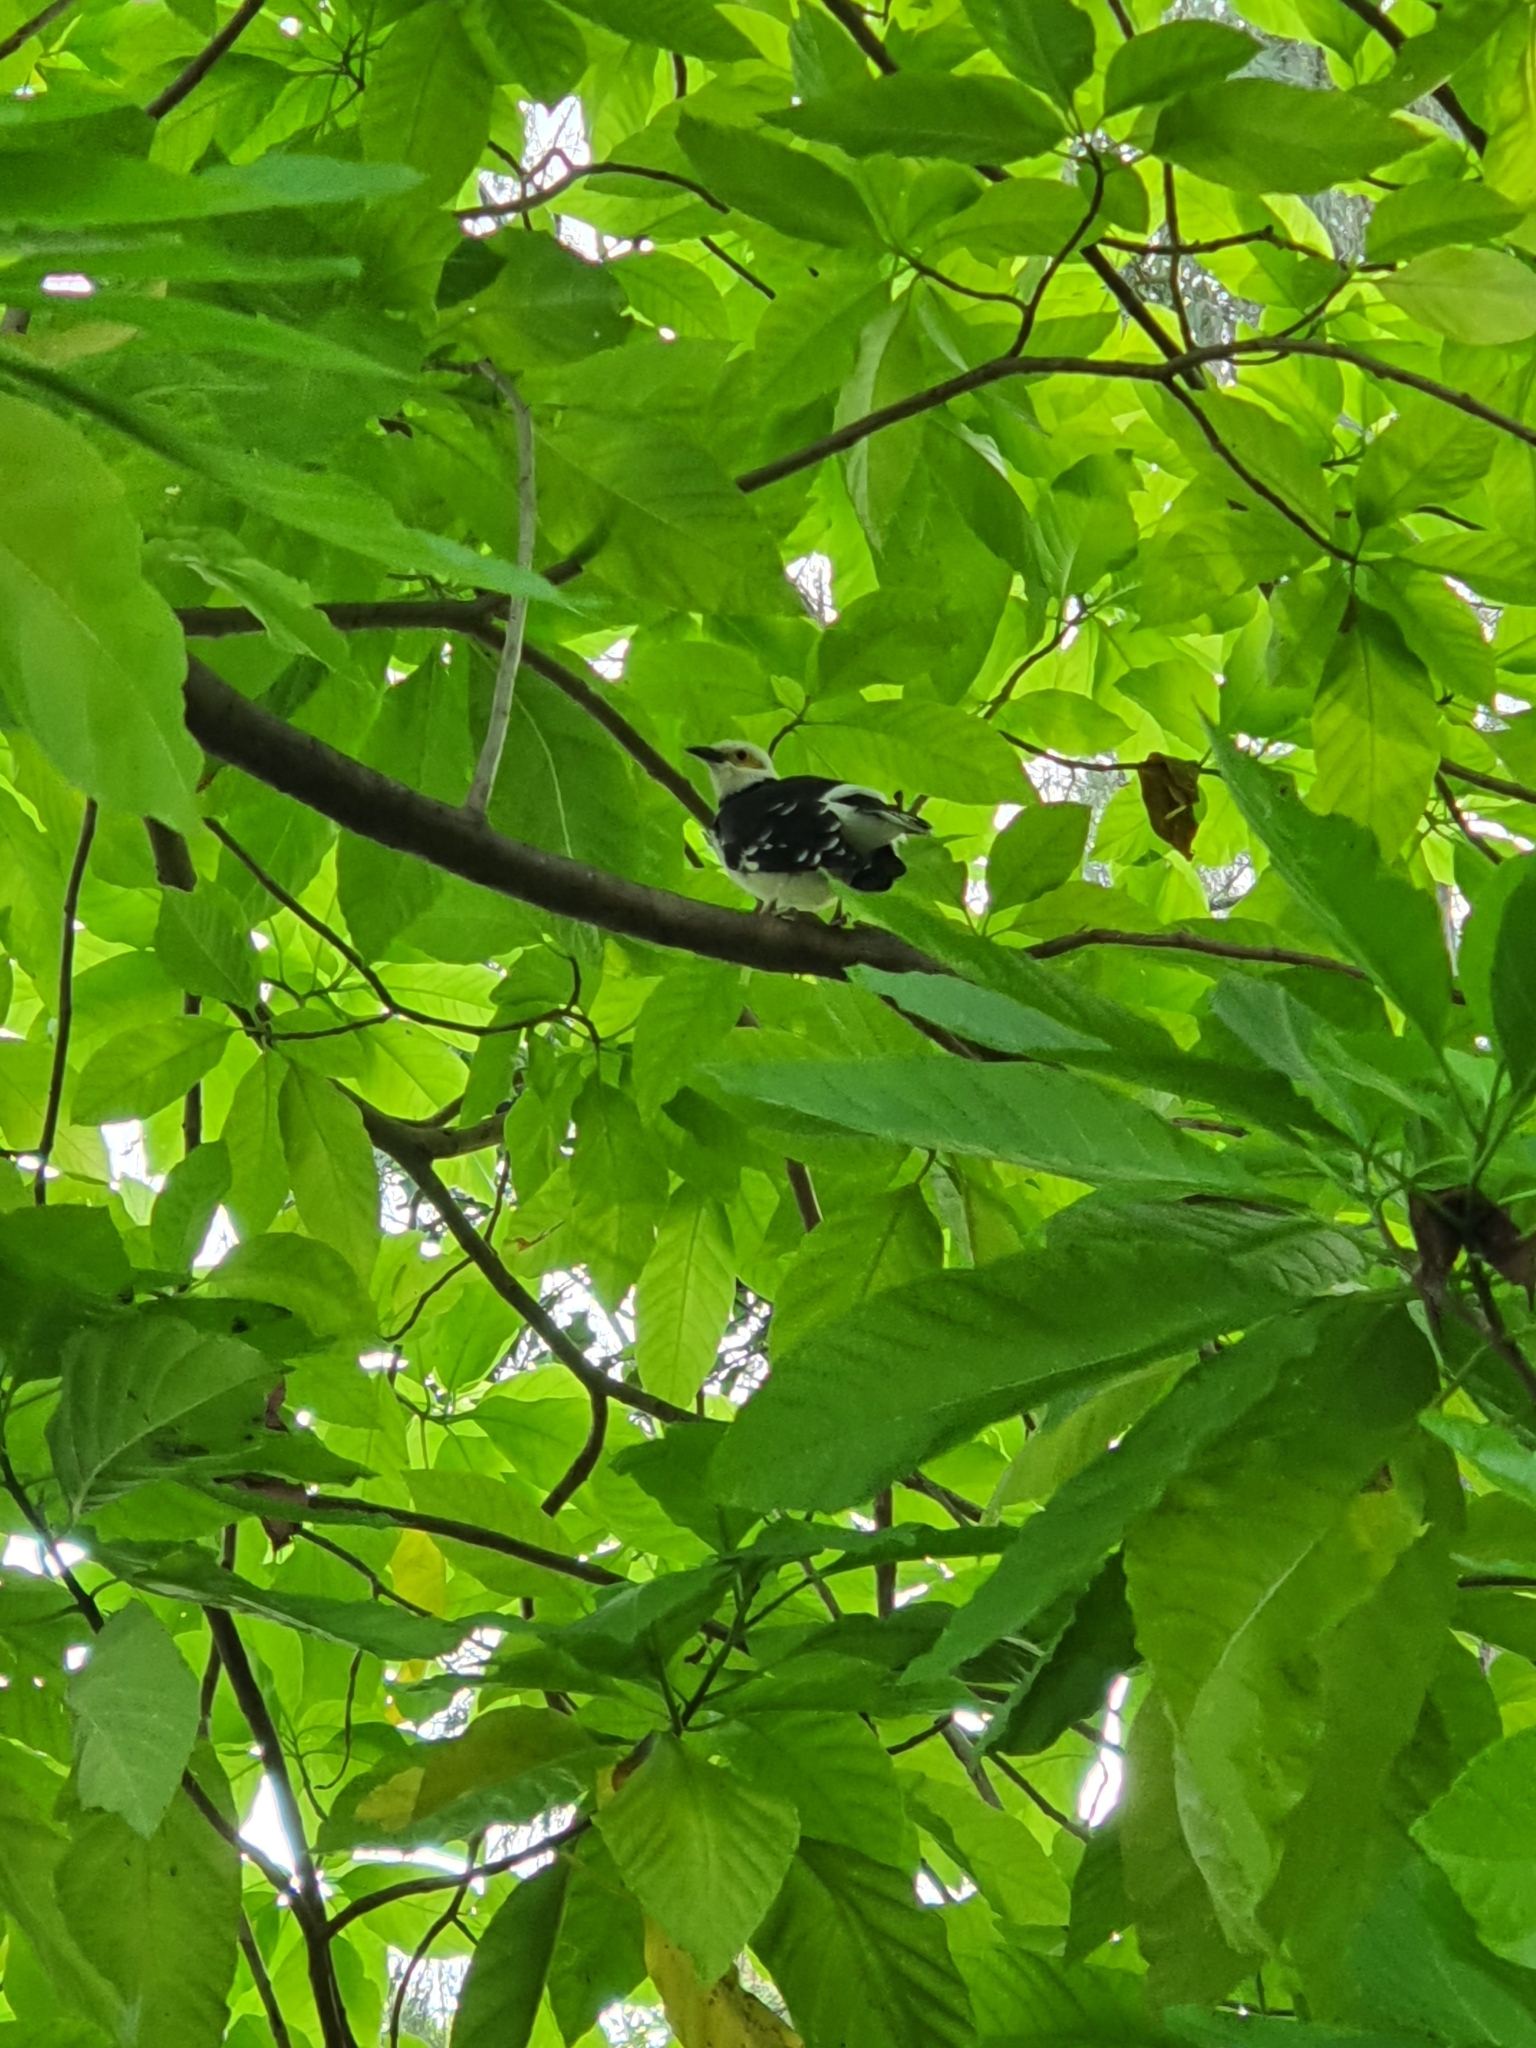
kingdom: Animalia
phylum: Chordata
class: Aves
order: Passeriformes
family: Sturnidae
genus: Gracupica
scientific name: Gracupica nigricollis
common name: Black-collared starling
